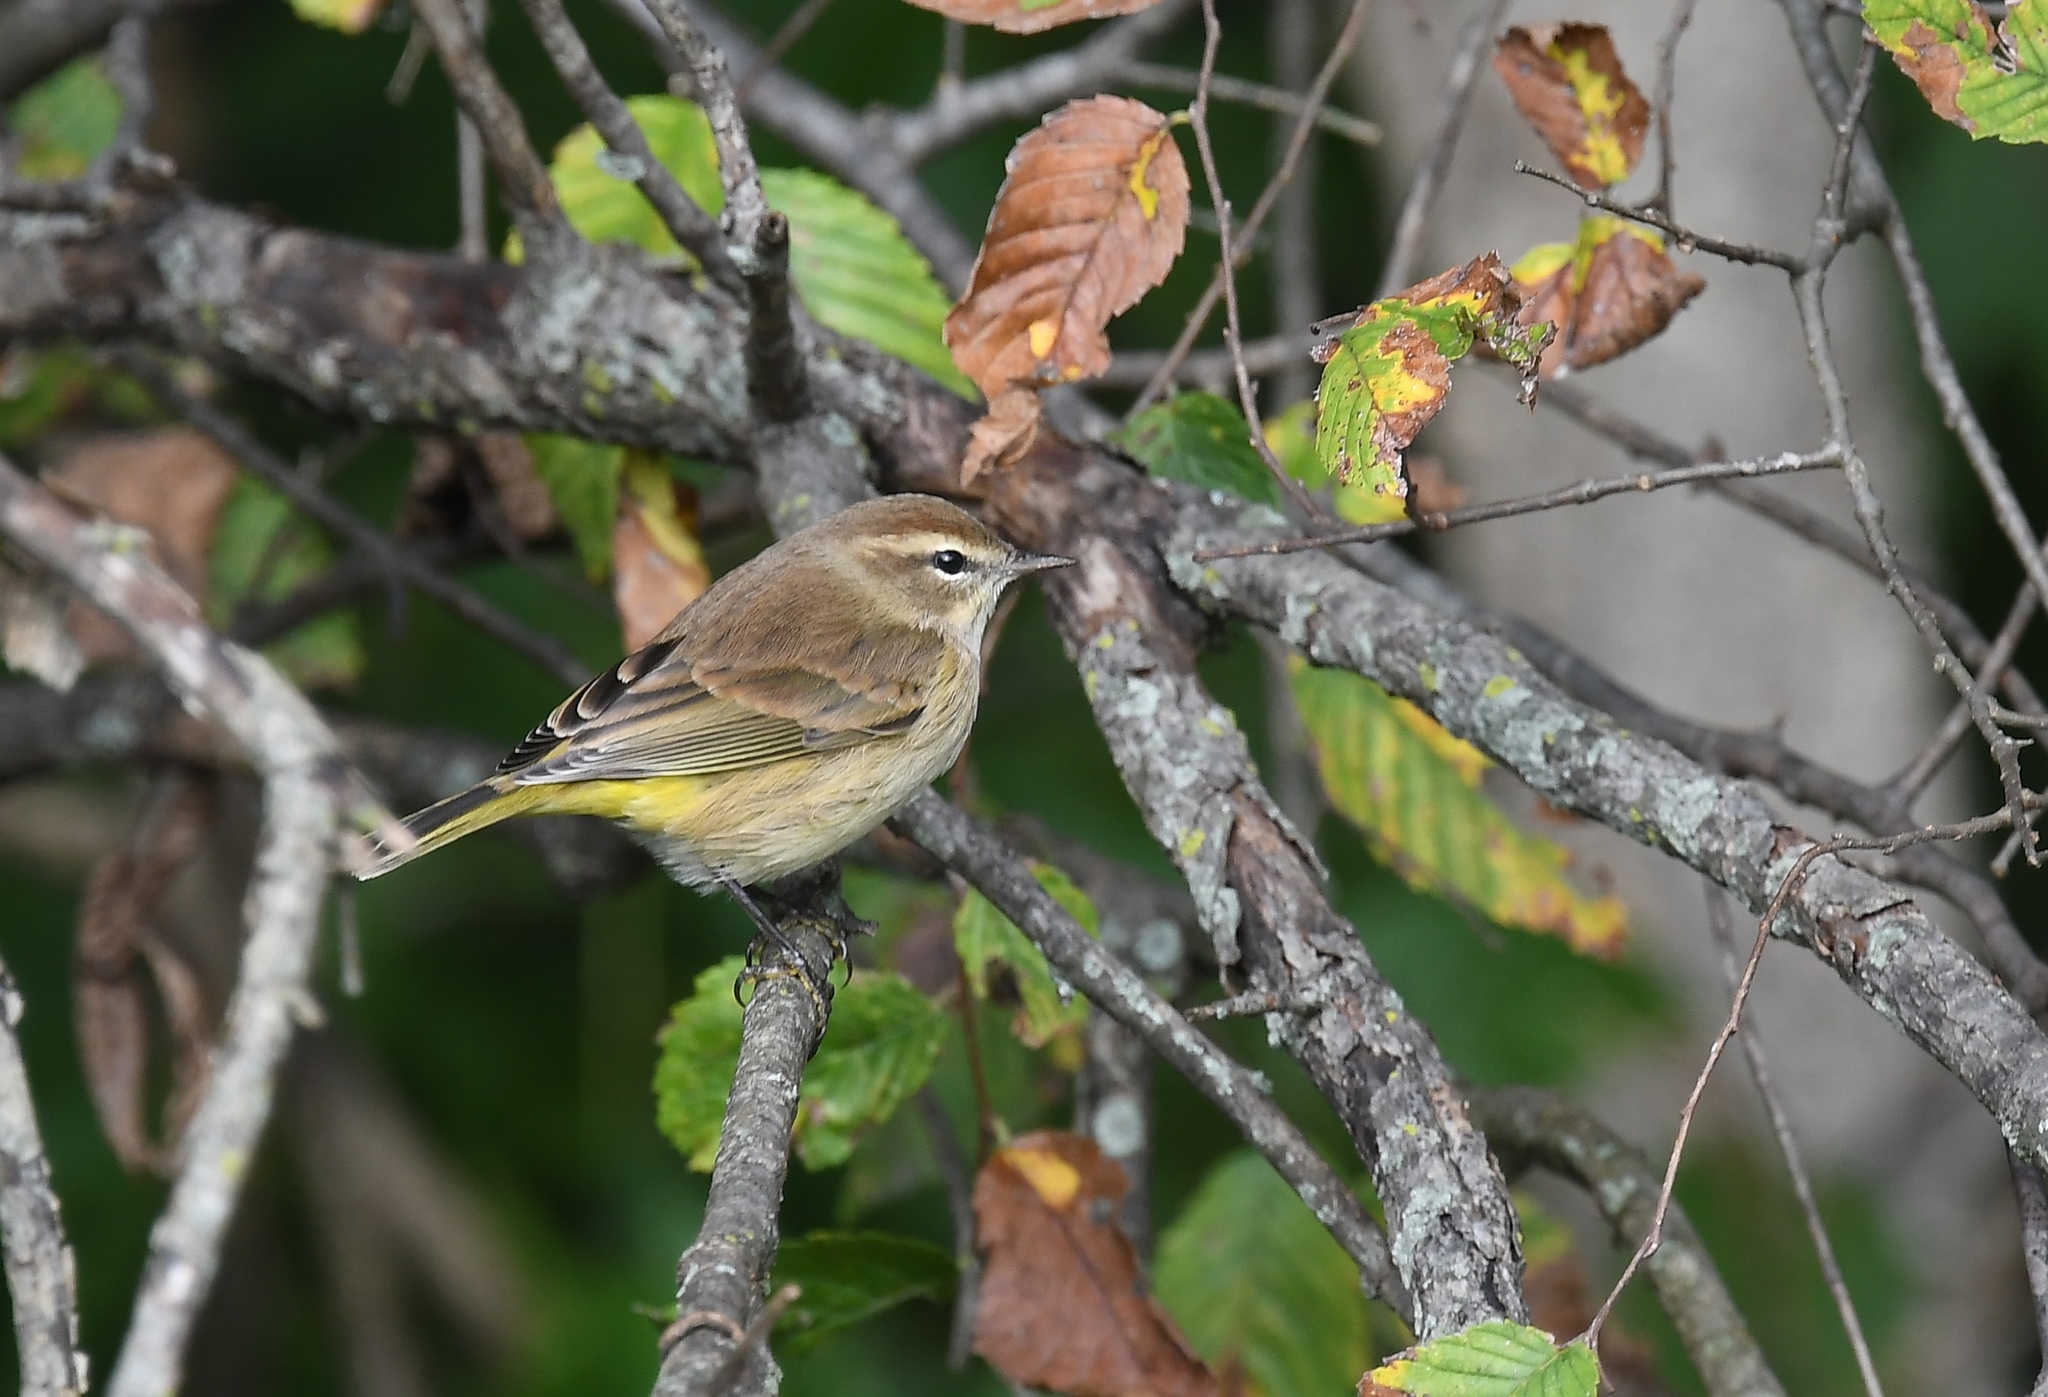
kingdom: Animalia
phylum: Chordata
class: Aves
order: Passeriformes
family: Parulidae
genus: Setophaga
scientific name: Setophaga palmarum
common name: Palm warbler
